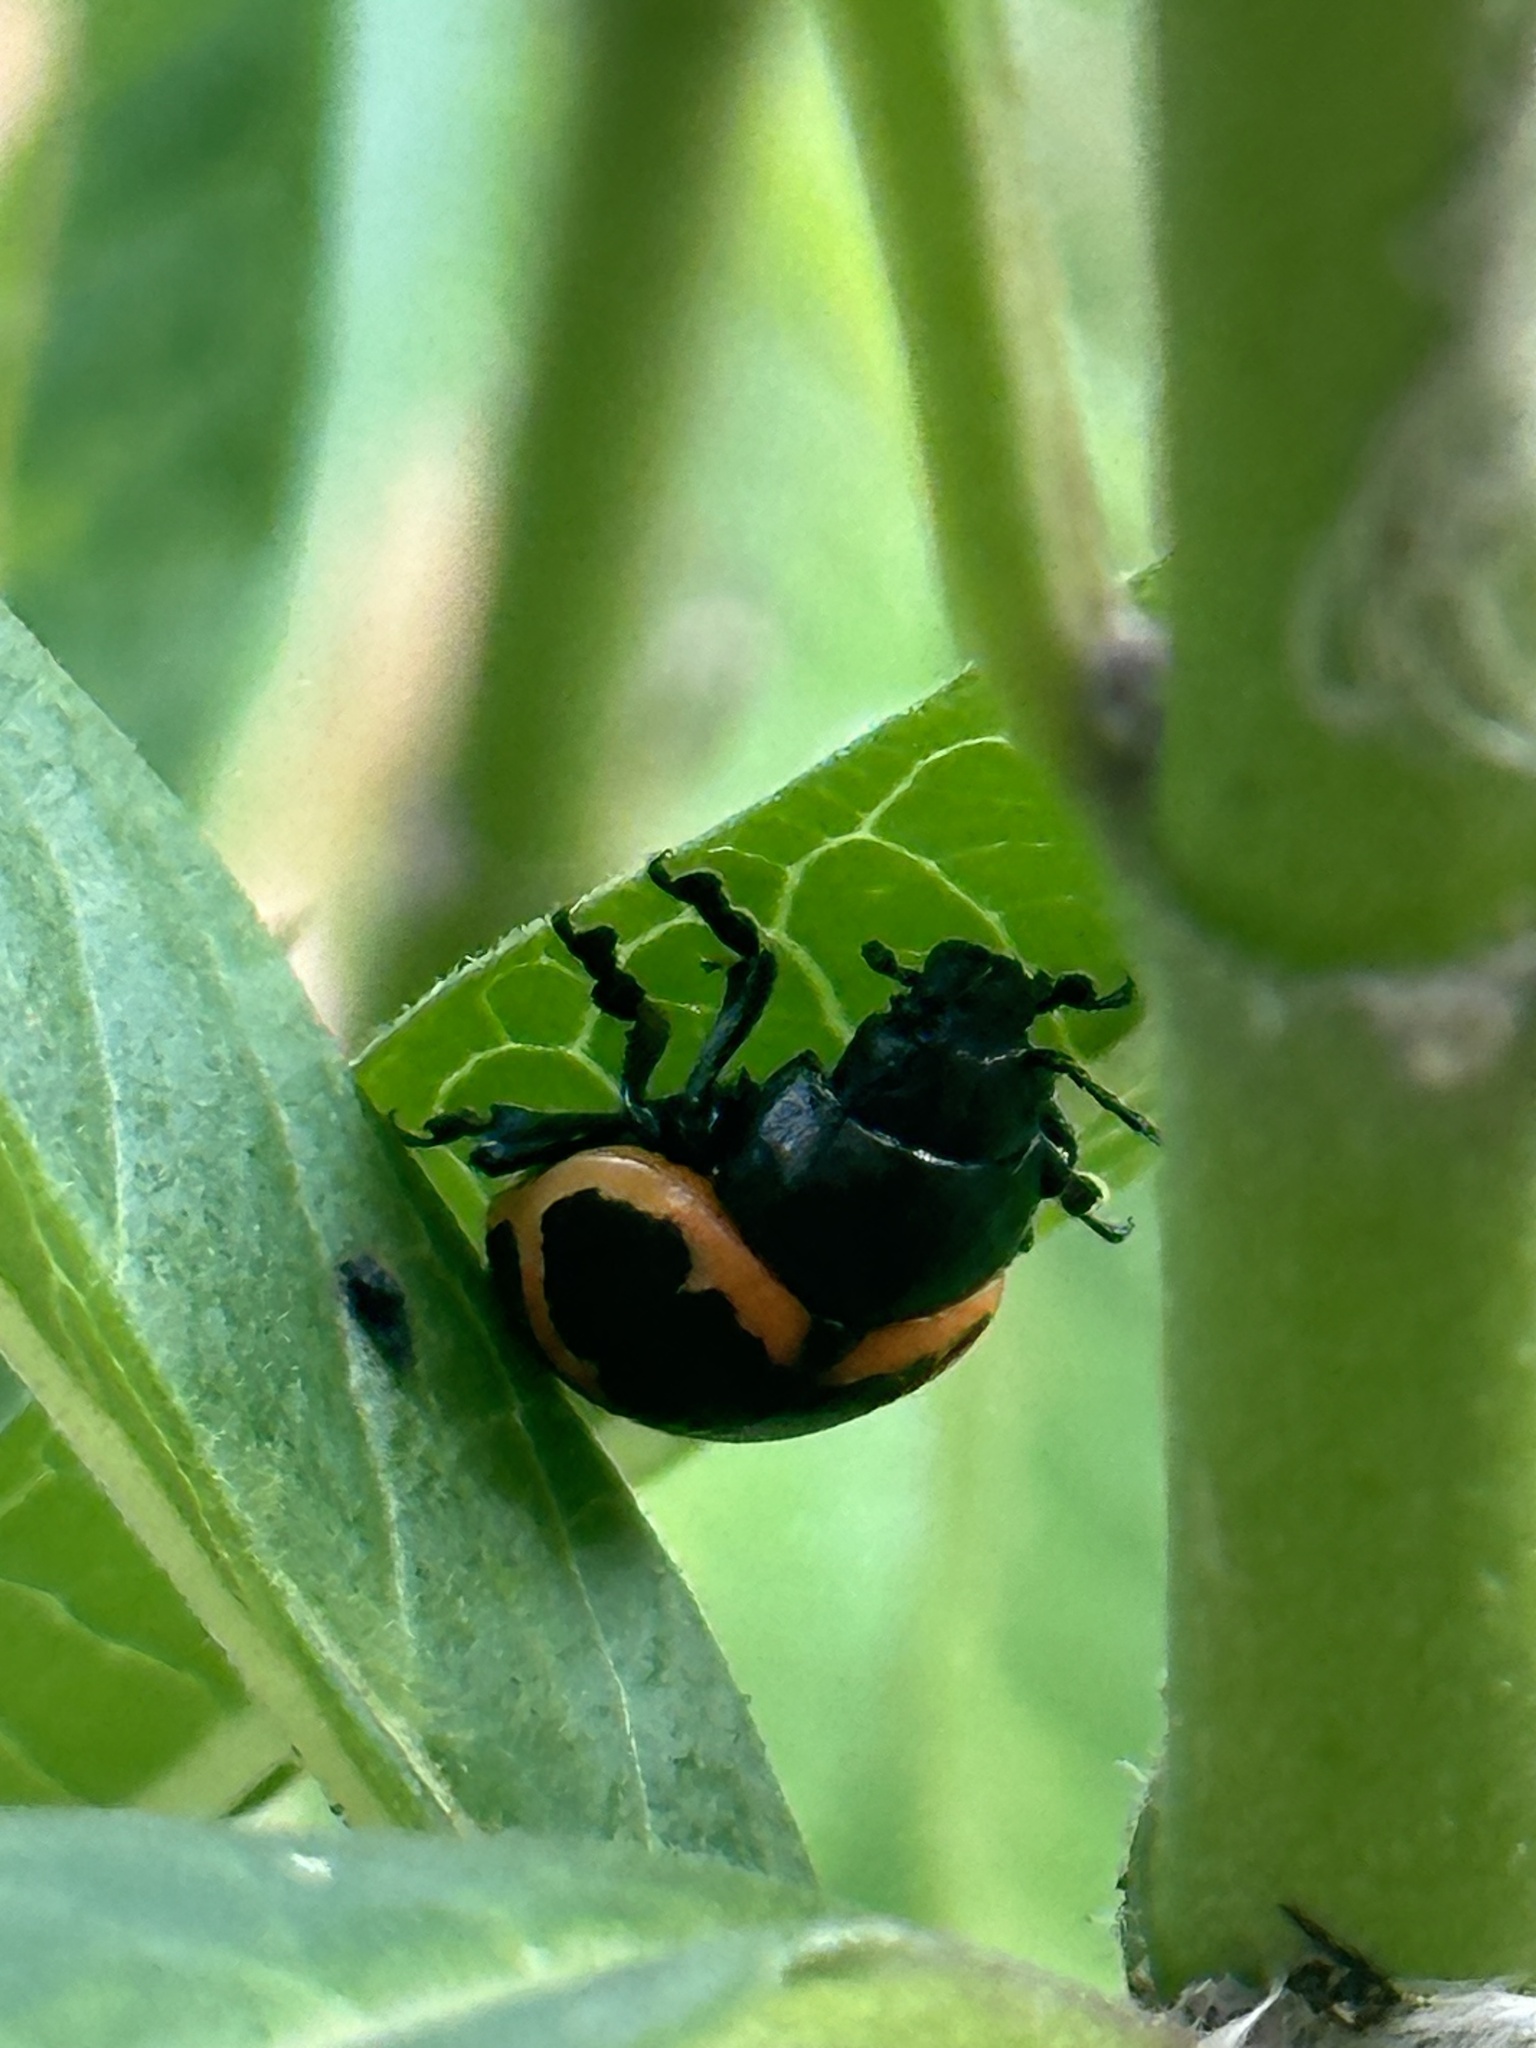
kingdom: Animalia
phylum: Arthropoda
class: Insecta
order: Coleoptera
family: Chrysomelidae
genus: Labidomera
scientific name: Labidomera clivicollis
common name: Swamp milkweed leaf beetle
